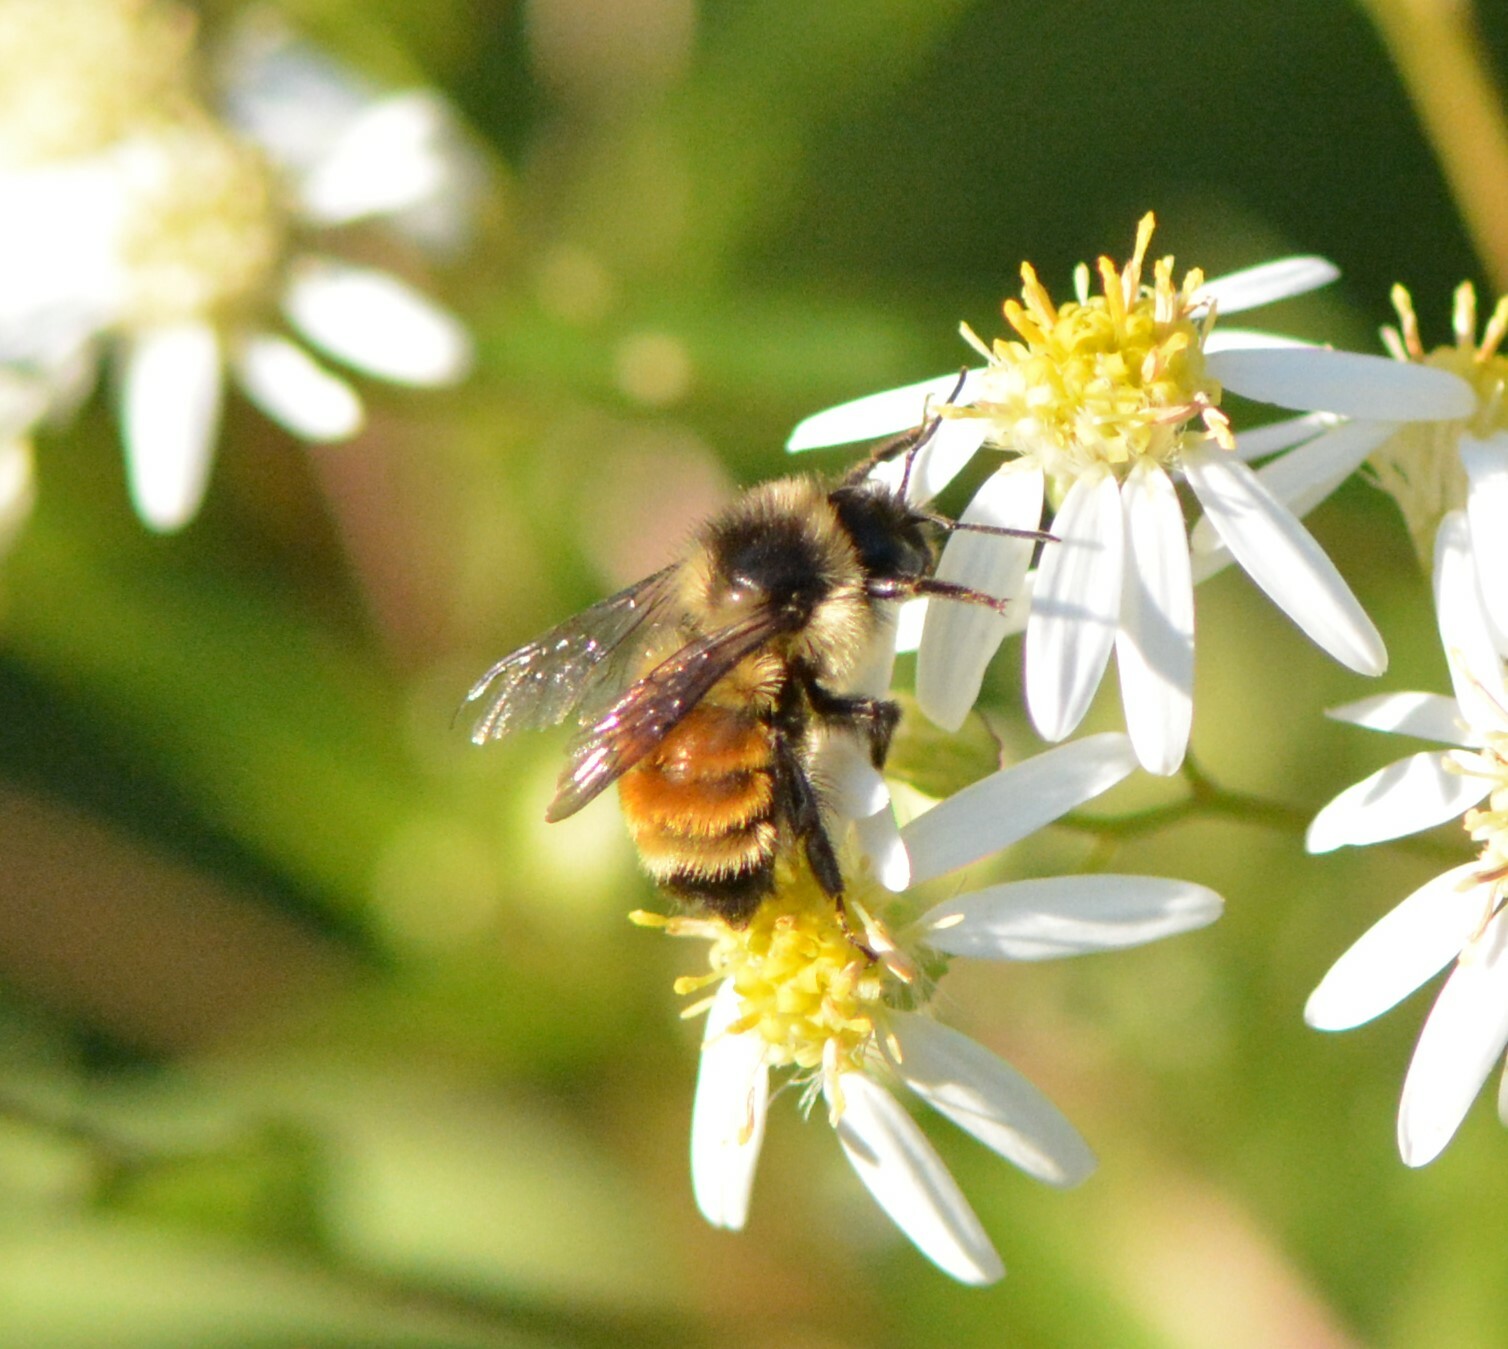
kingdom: Animalia
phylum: Arthropoda
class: Insecta
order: Hymenoptera
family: Apidae
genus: Bombus
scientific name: Bombus ternarius
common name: Tri-colored bumble bee
